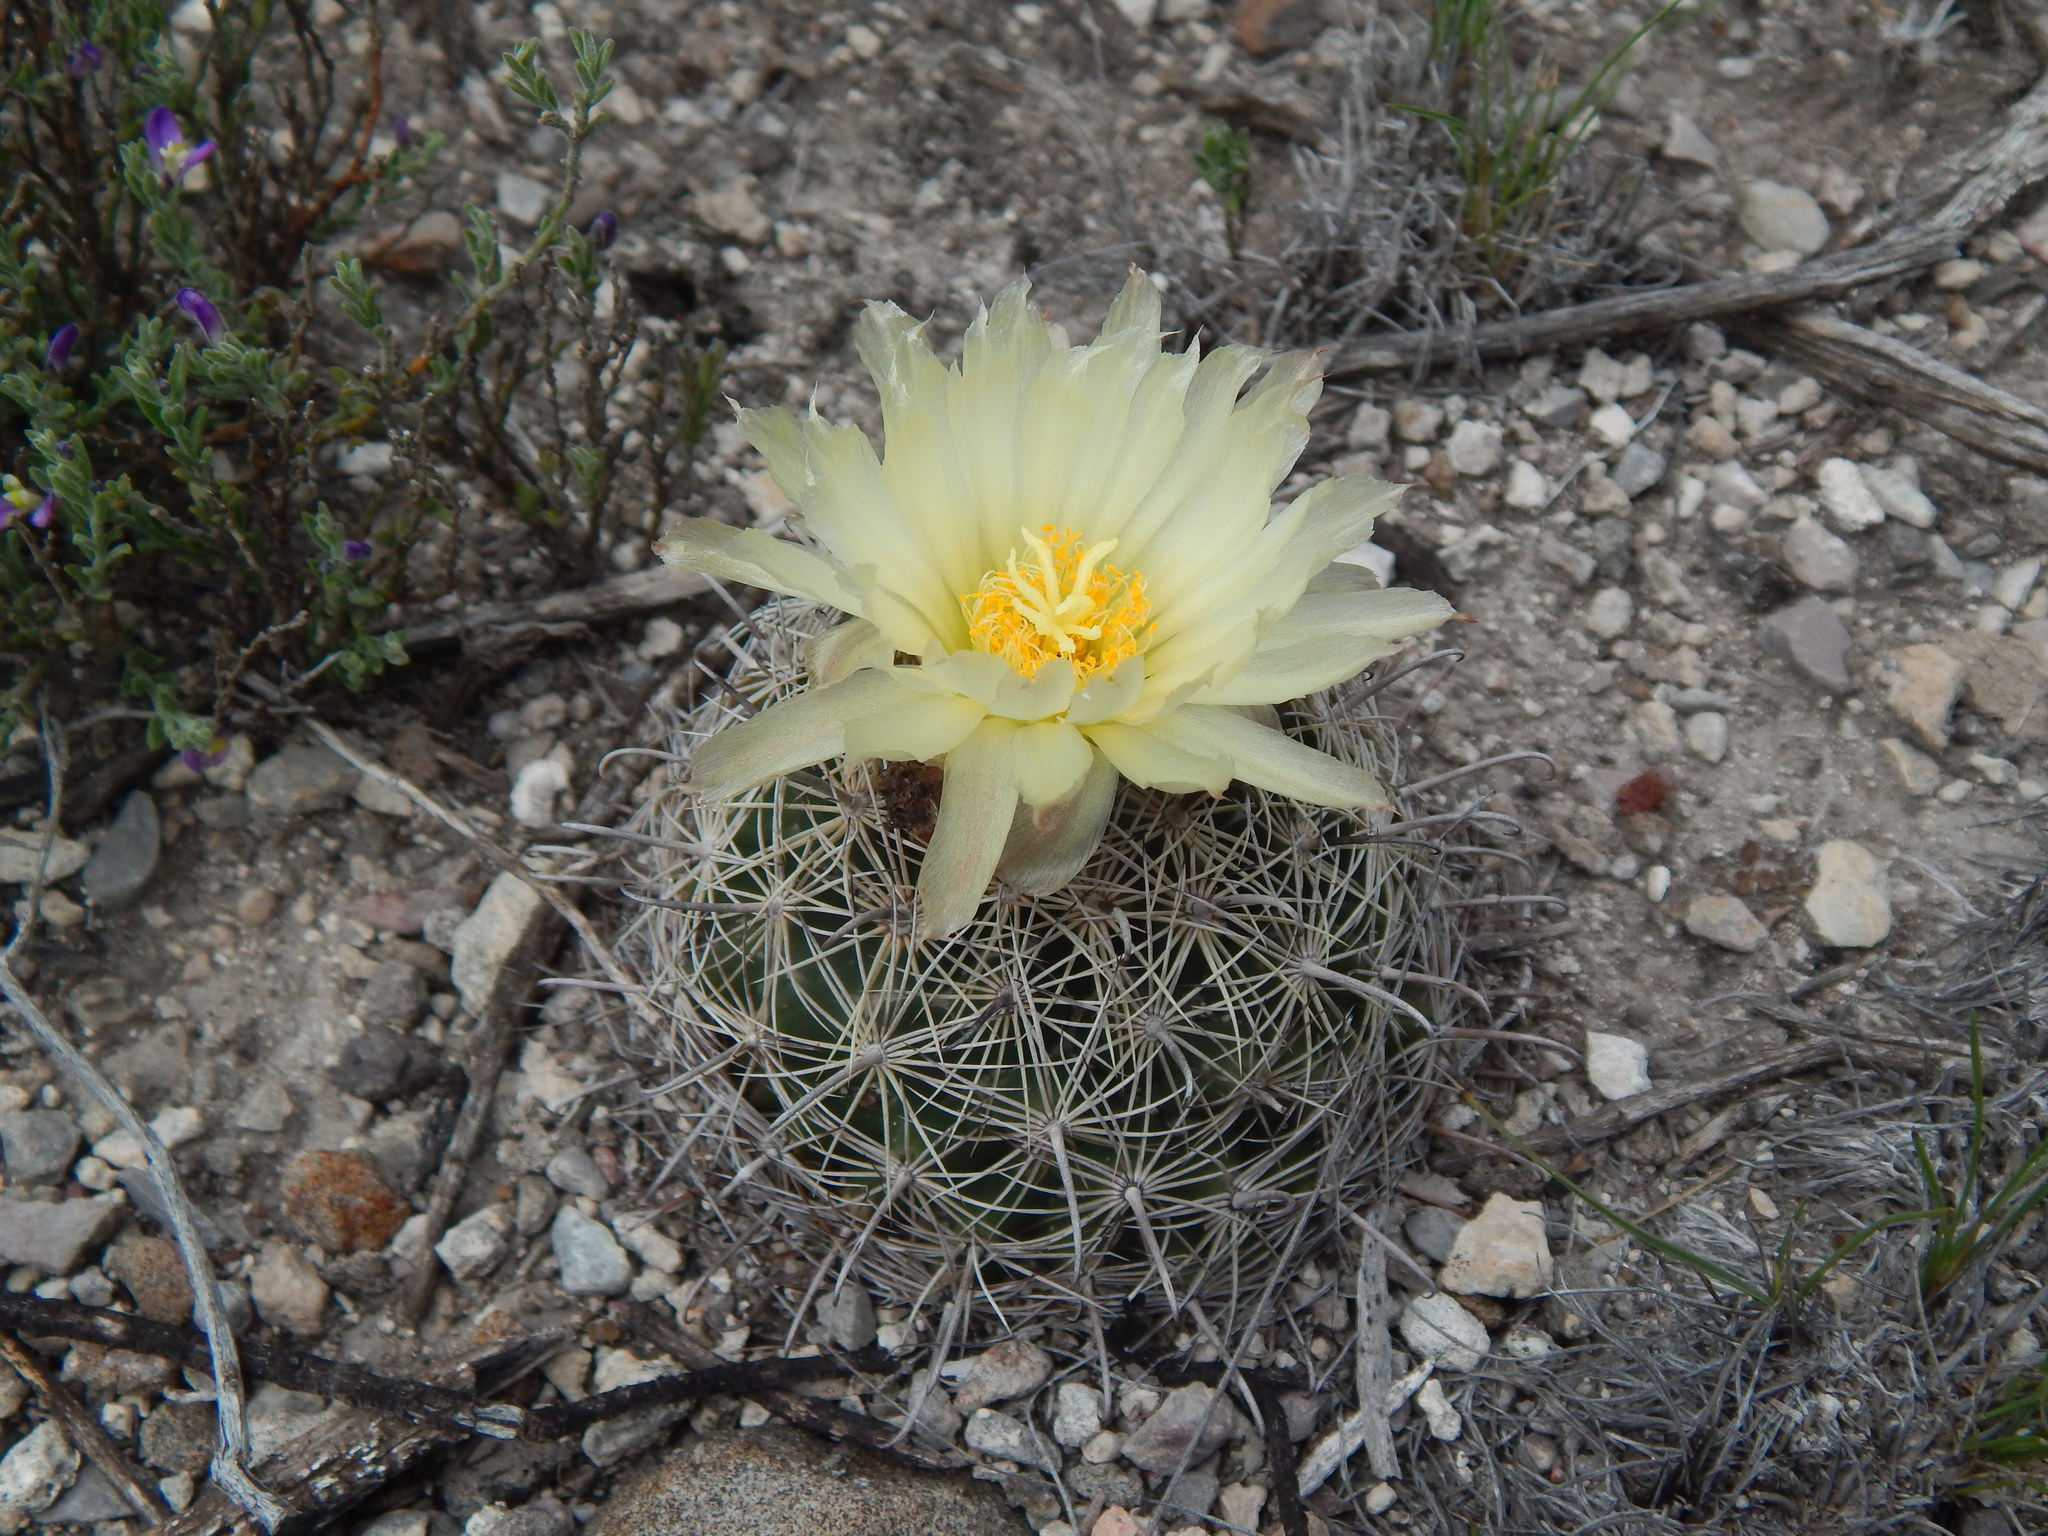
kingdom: Plantae
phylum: Tracheophyta
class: Magnoliopsida
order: Caryophyllales
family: Cactaceae
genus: Coryphantha
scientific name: Coryphantha delicata
